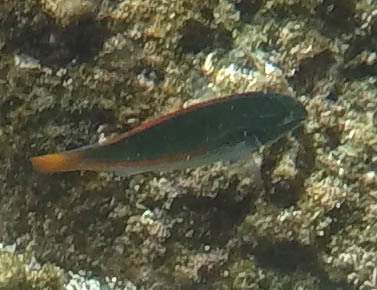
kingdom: Animalia
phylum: Chordata
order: Perciformes
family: Labridae
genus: Stethojulis
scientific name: Stethojulis balteata
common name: Belted wrasse
